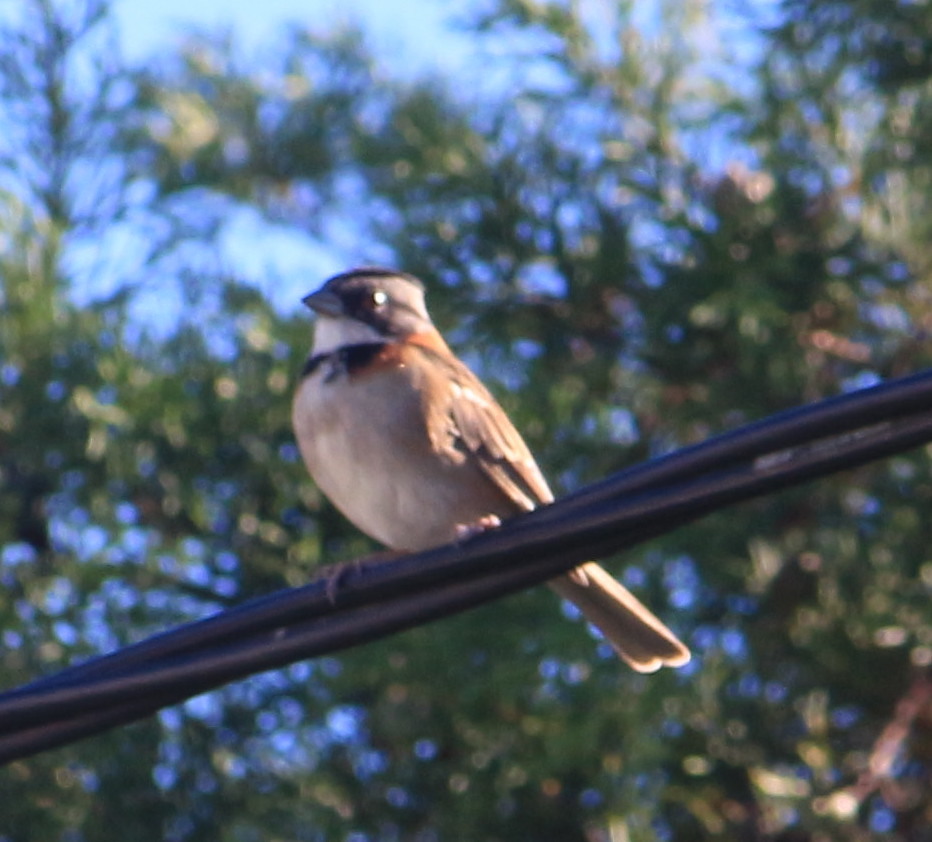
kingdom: Animalia
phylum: Chordata
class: Aves
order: Passeriformes
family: Passerellidae
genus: Zonotrichia
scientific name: Zonotrichia capensis
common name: Rufous-collared sparrow
